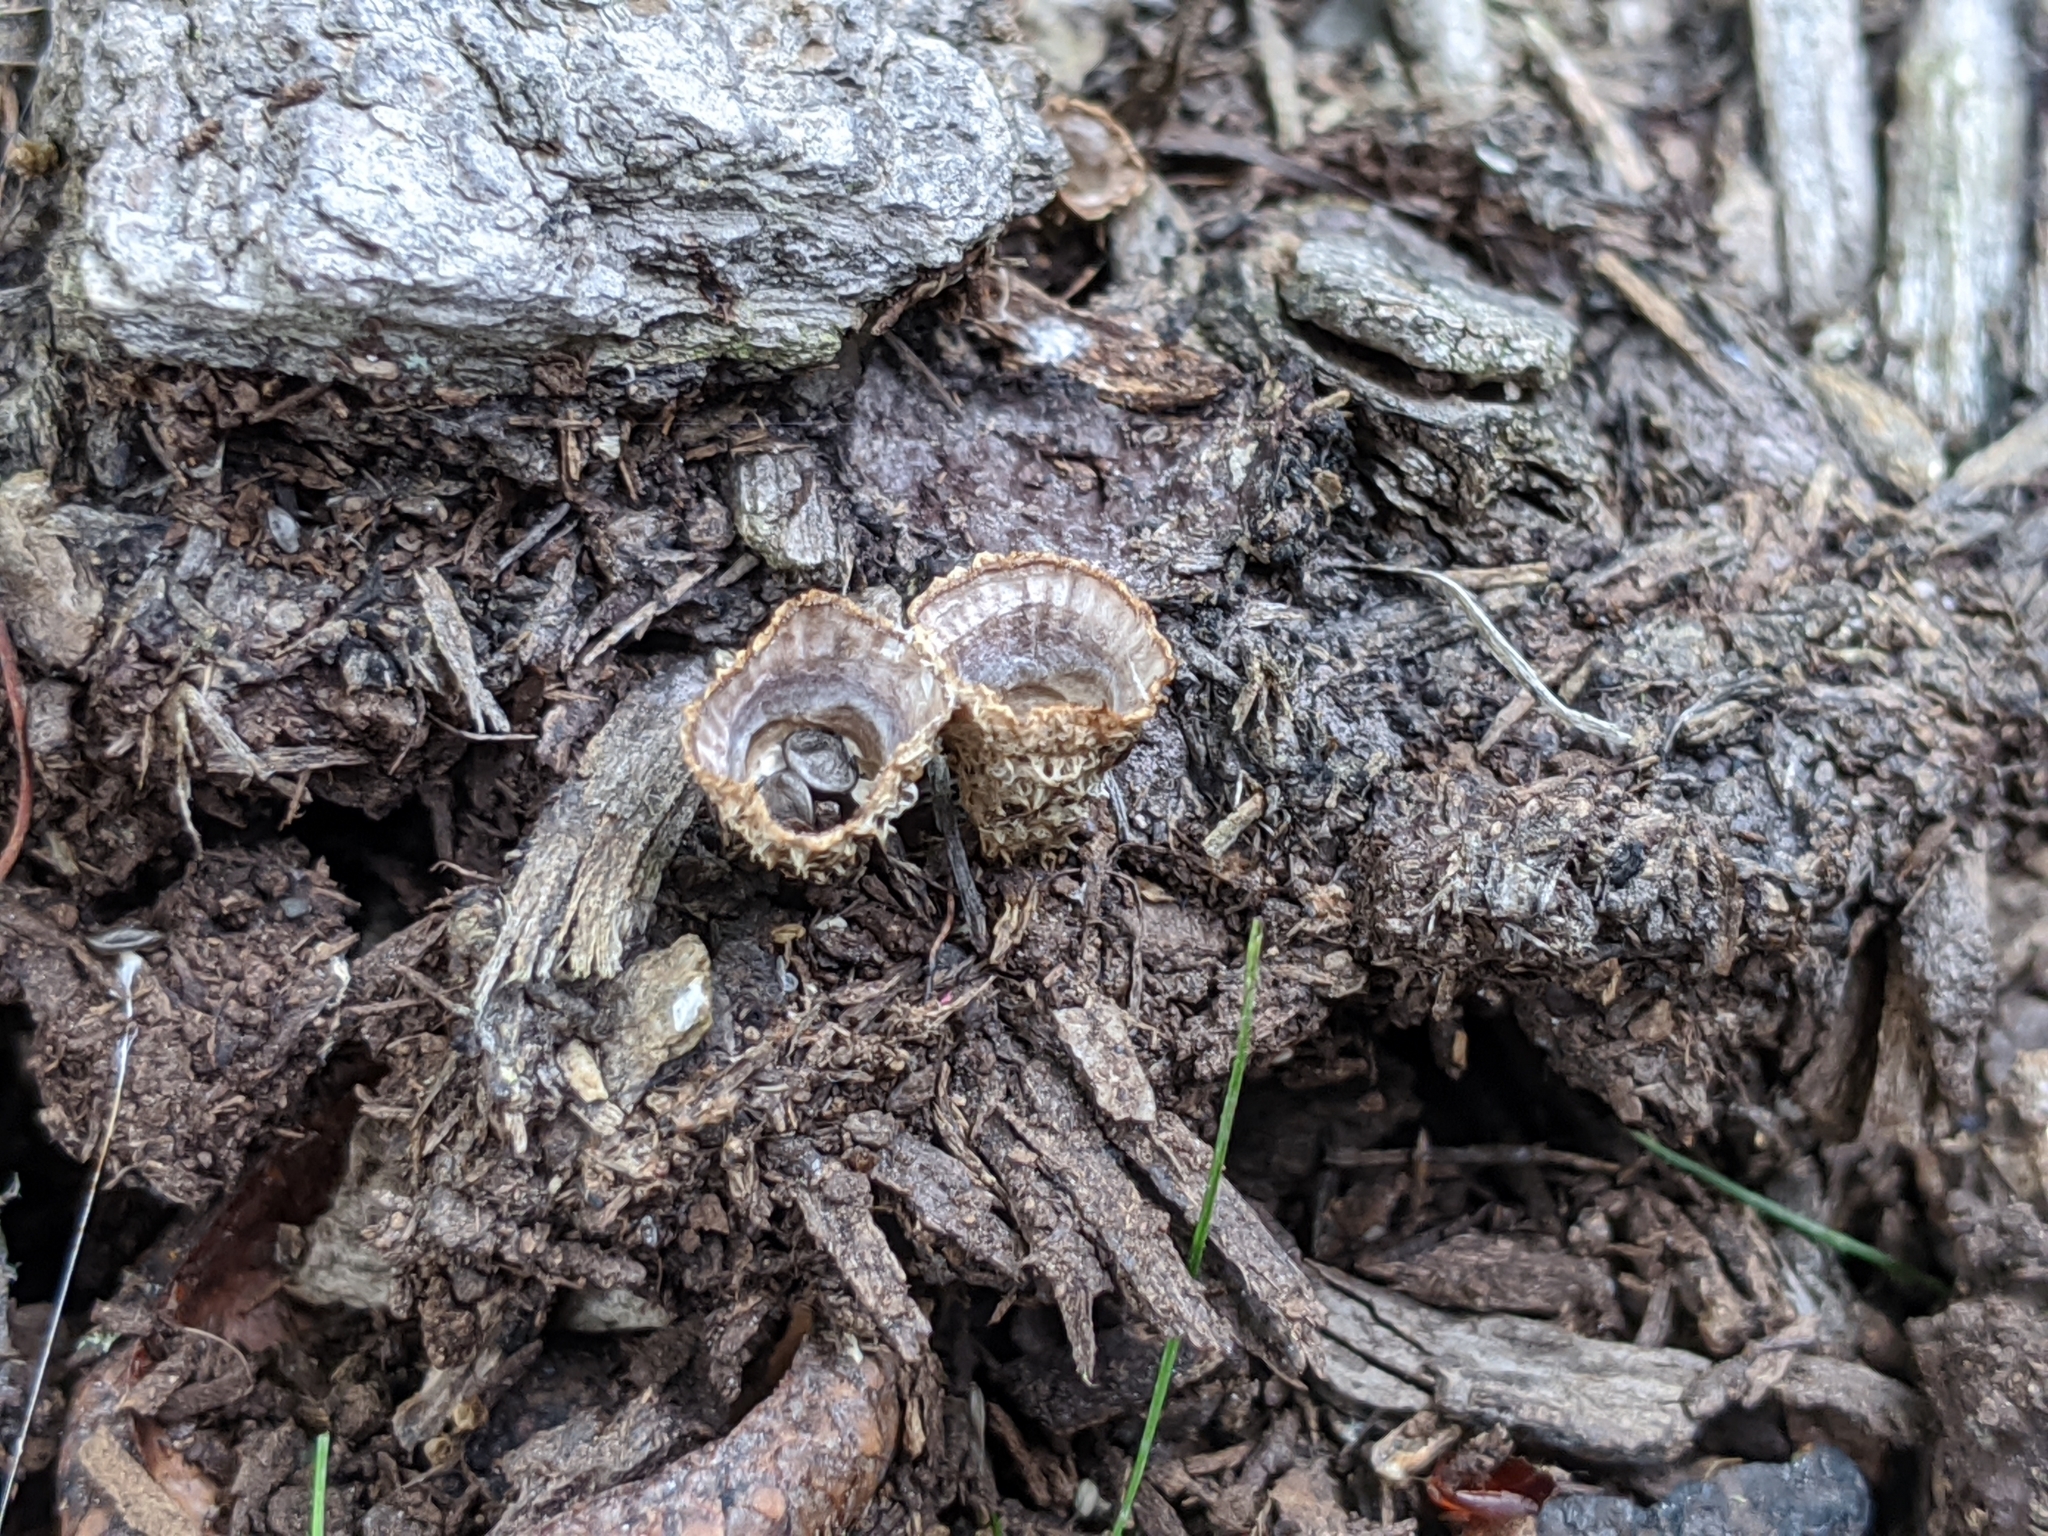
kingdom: Fungi
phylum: Basidiomycota
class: Agaricomycetes
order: Agaricales
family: Agaricaceae
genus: Cyathus
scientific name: Cyathus striatus
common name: Fluted bird's nest
